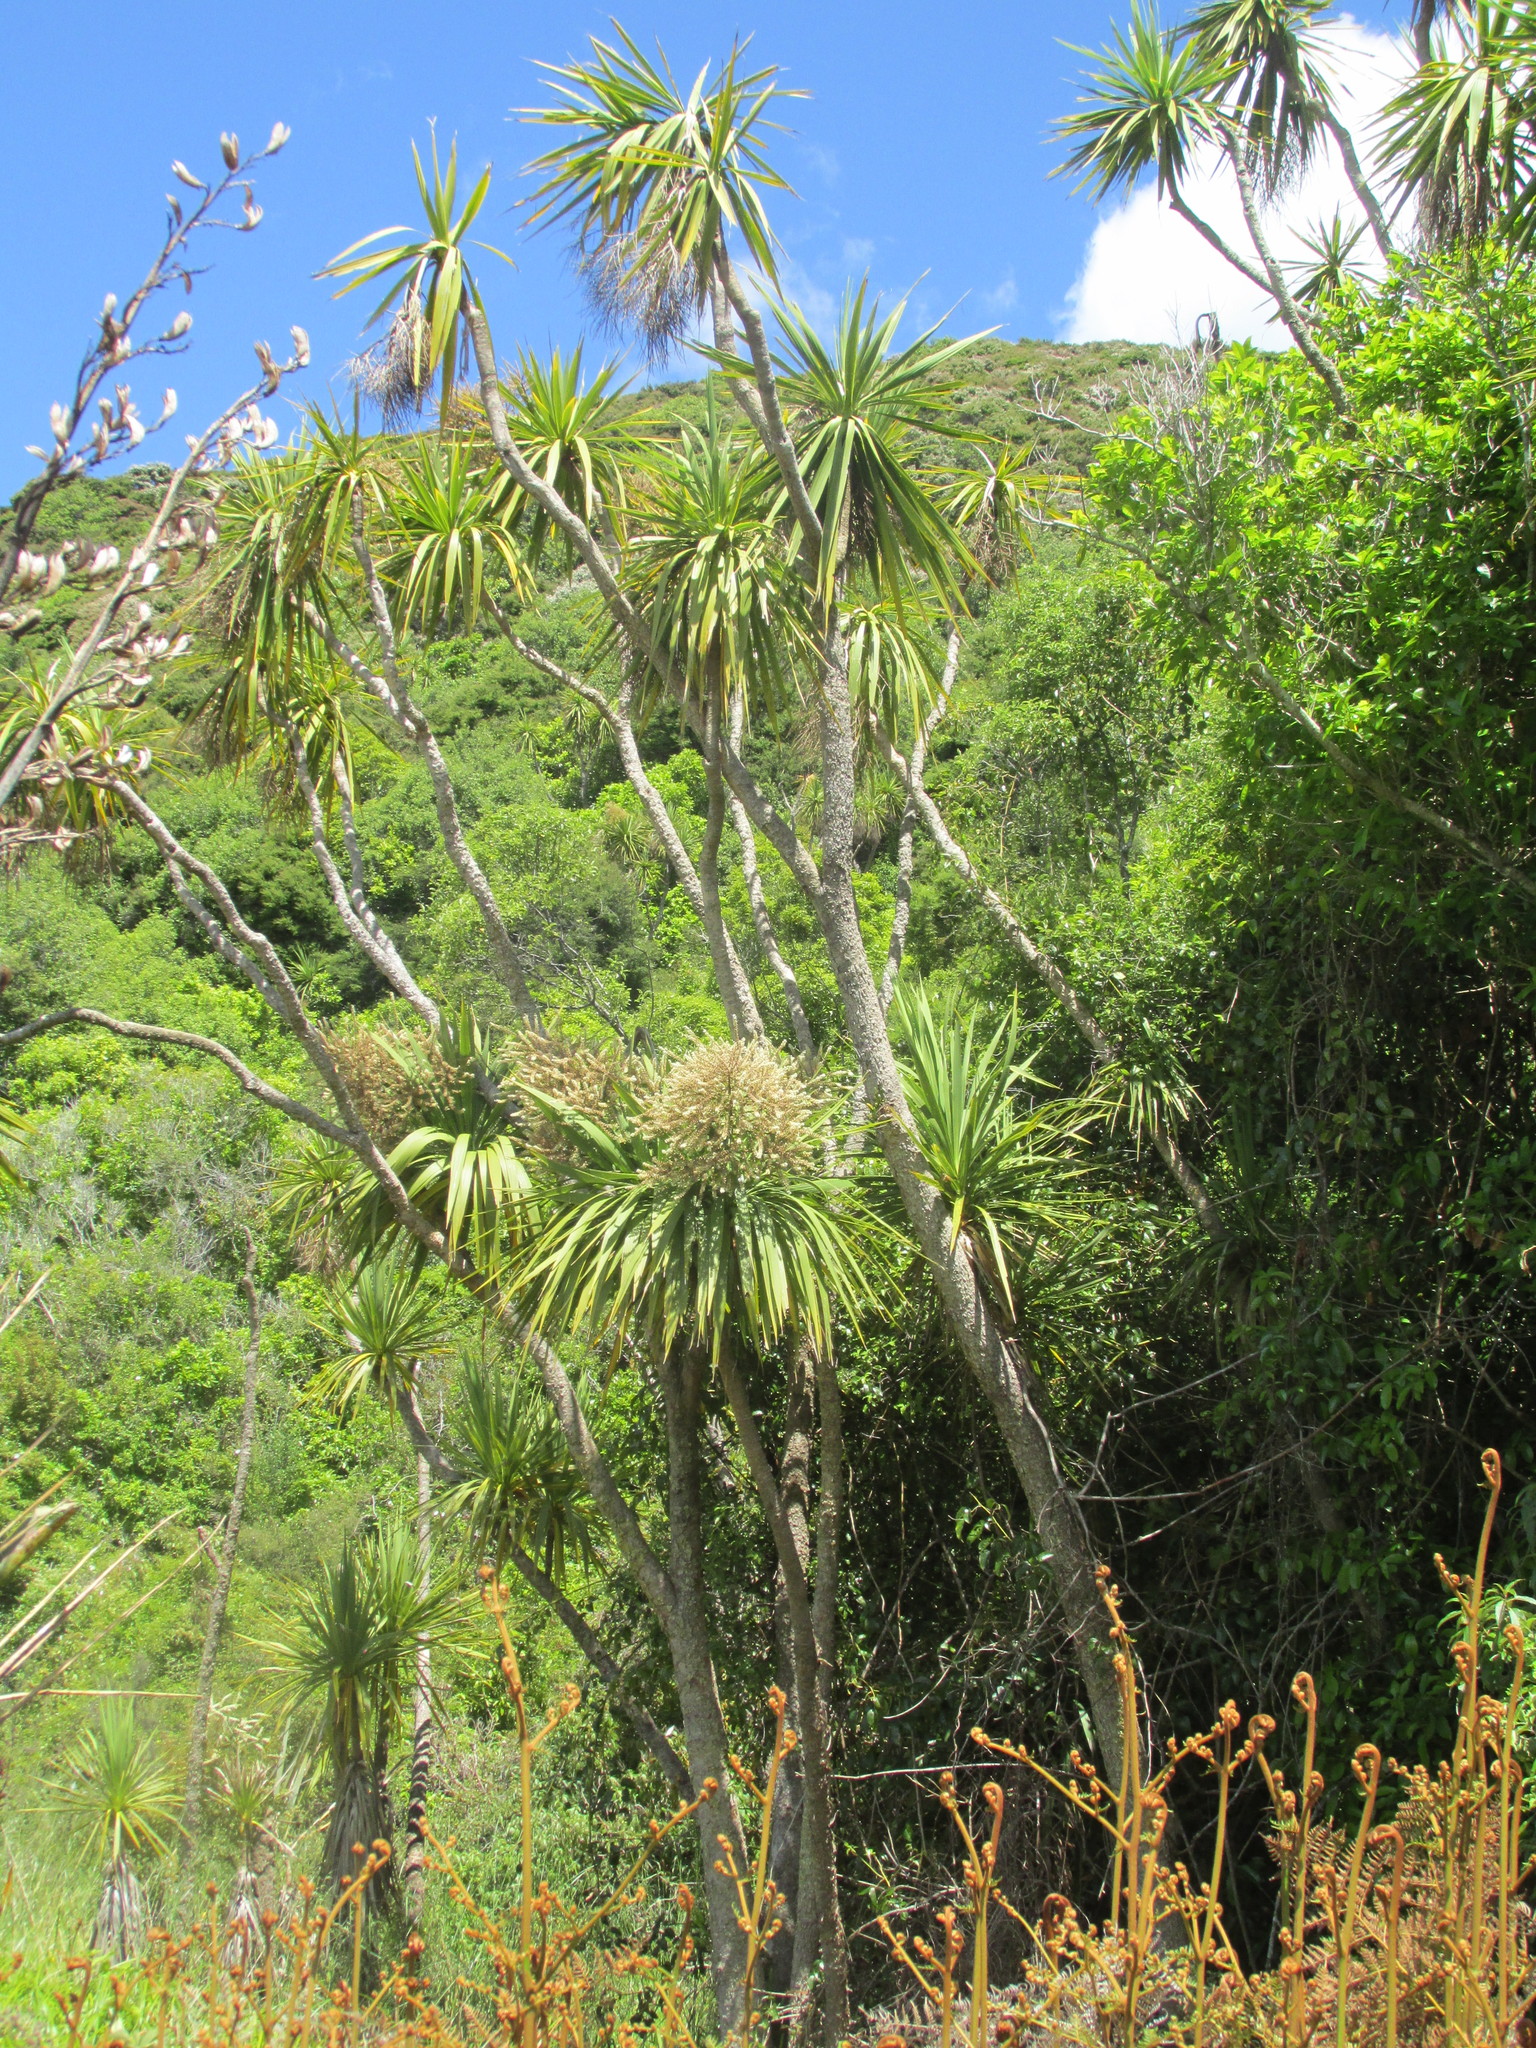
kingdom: Plantae
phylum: Tracheophyta
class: Liliopsida
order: Asparagales
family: Asparagaceae
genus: Cordyline
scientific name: Cordyline australis
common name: Cabbage-palm
